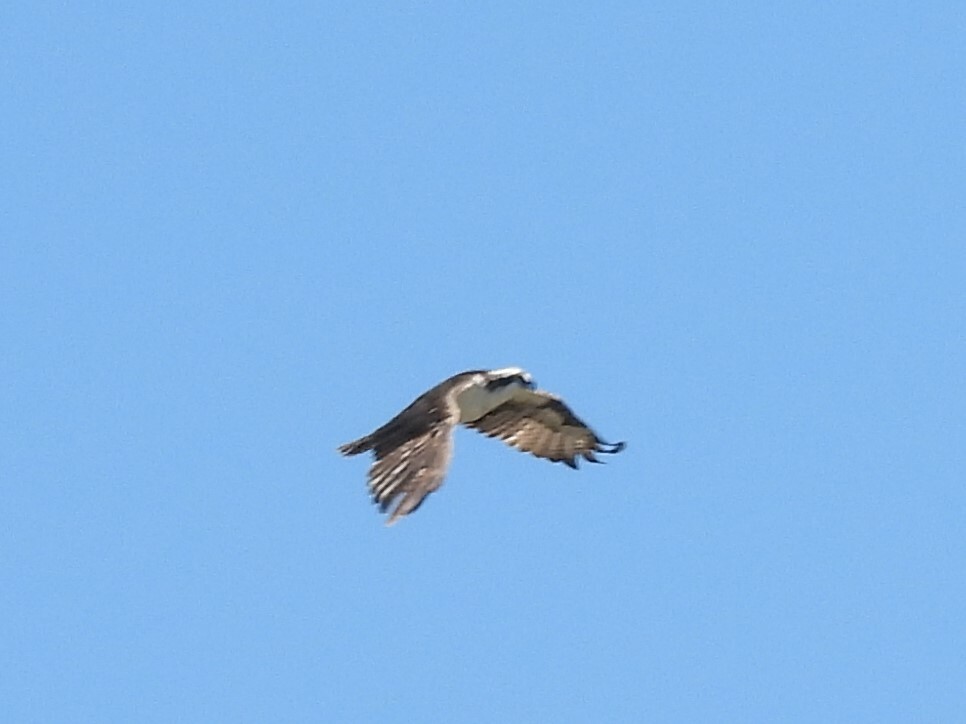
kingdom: Animalia
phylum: Chordata
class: Aves
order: Accipitriformes
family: Pandionidae
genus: Pandion
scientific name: Pandion haliaetus
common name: Osprey
